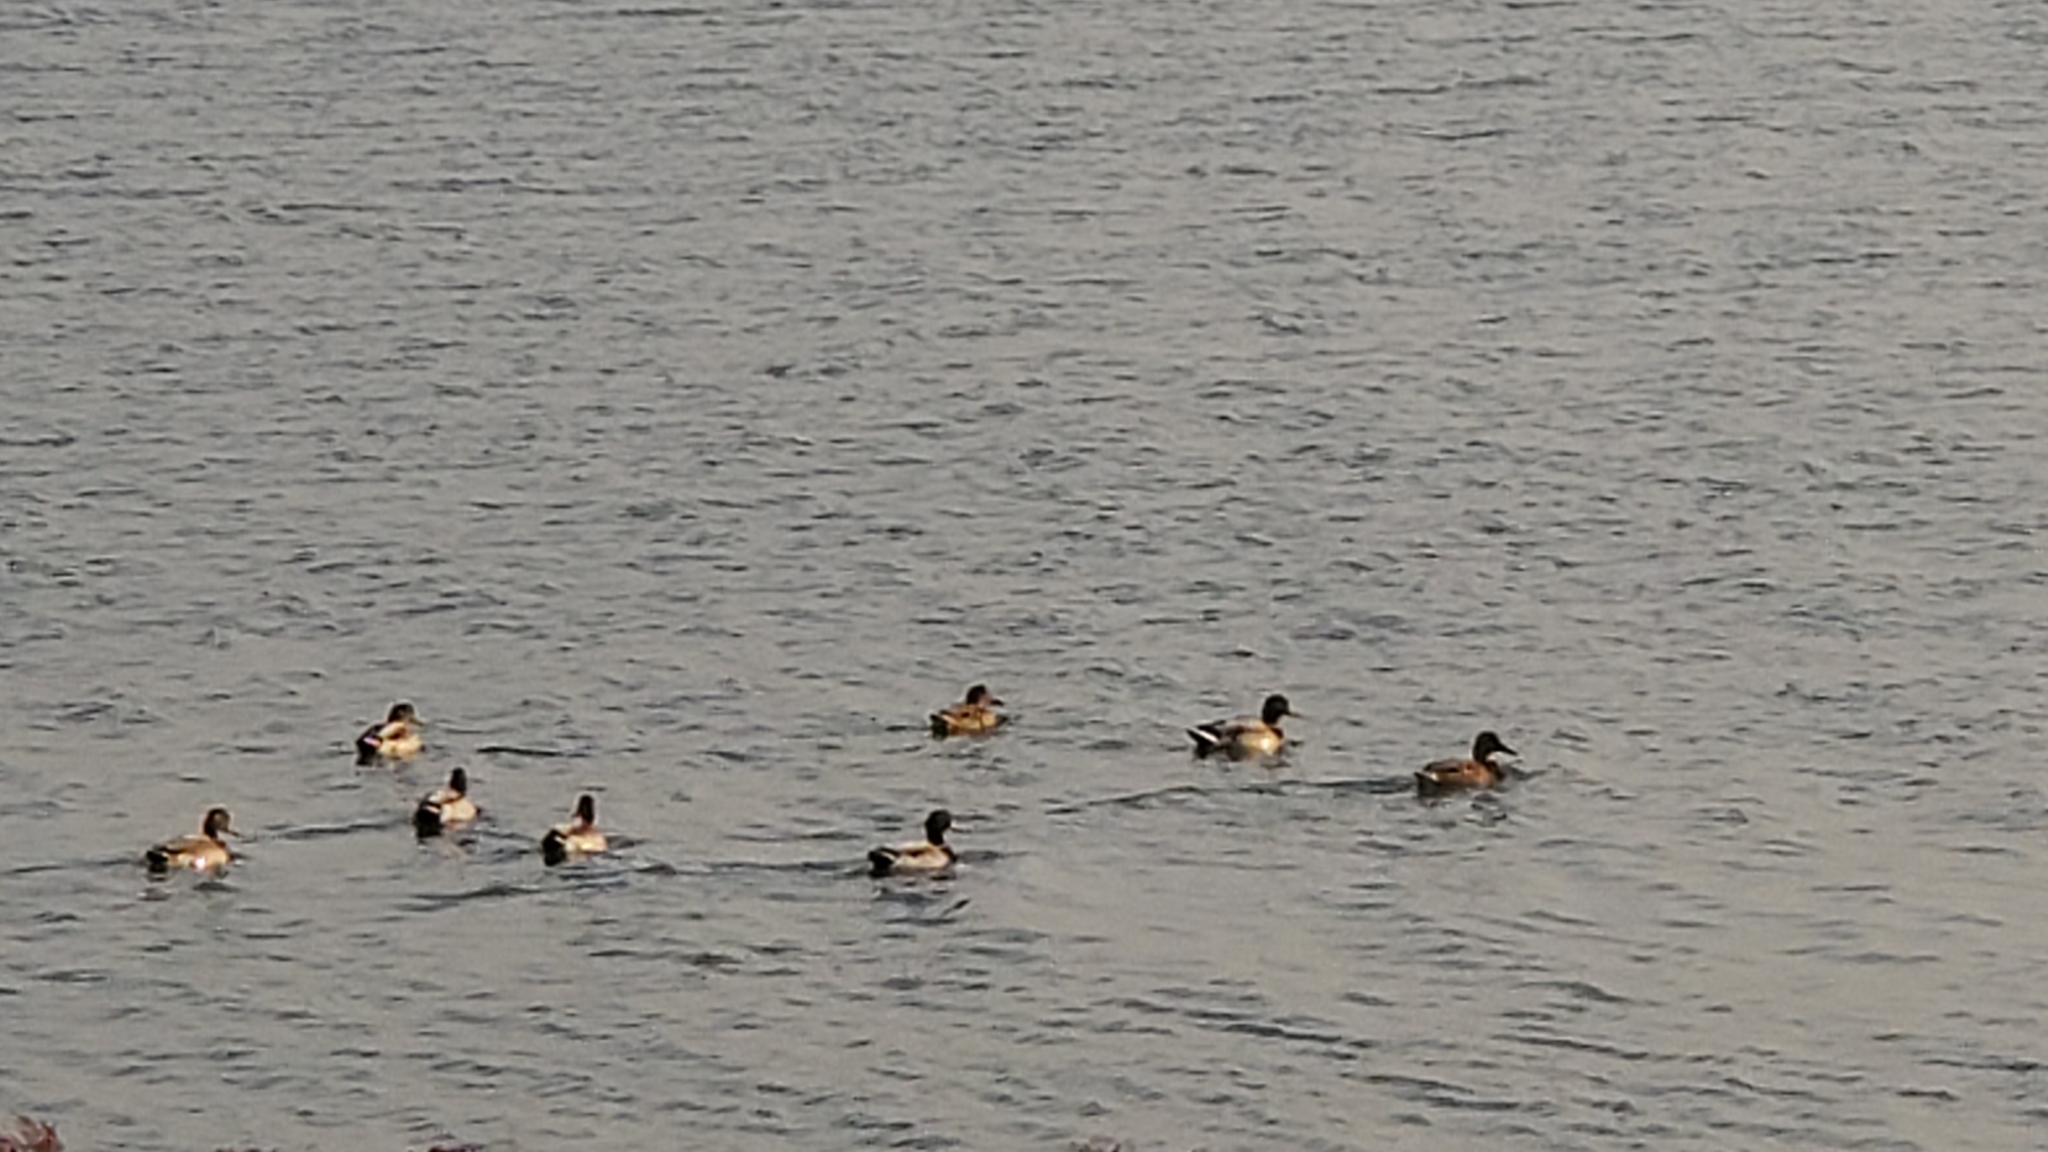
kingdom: Animalia
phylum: Chordata
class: Aves
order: Anseriformes
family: Anatidae
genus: Anas
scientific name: Anas platyrhynchos
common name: Mallard
